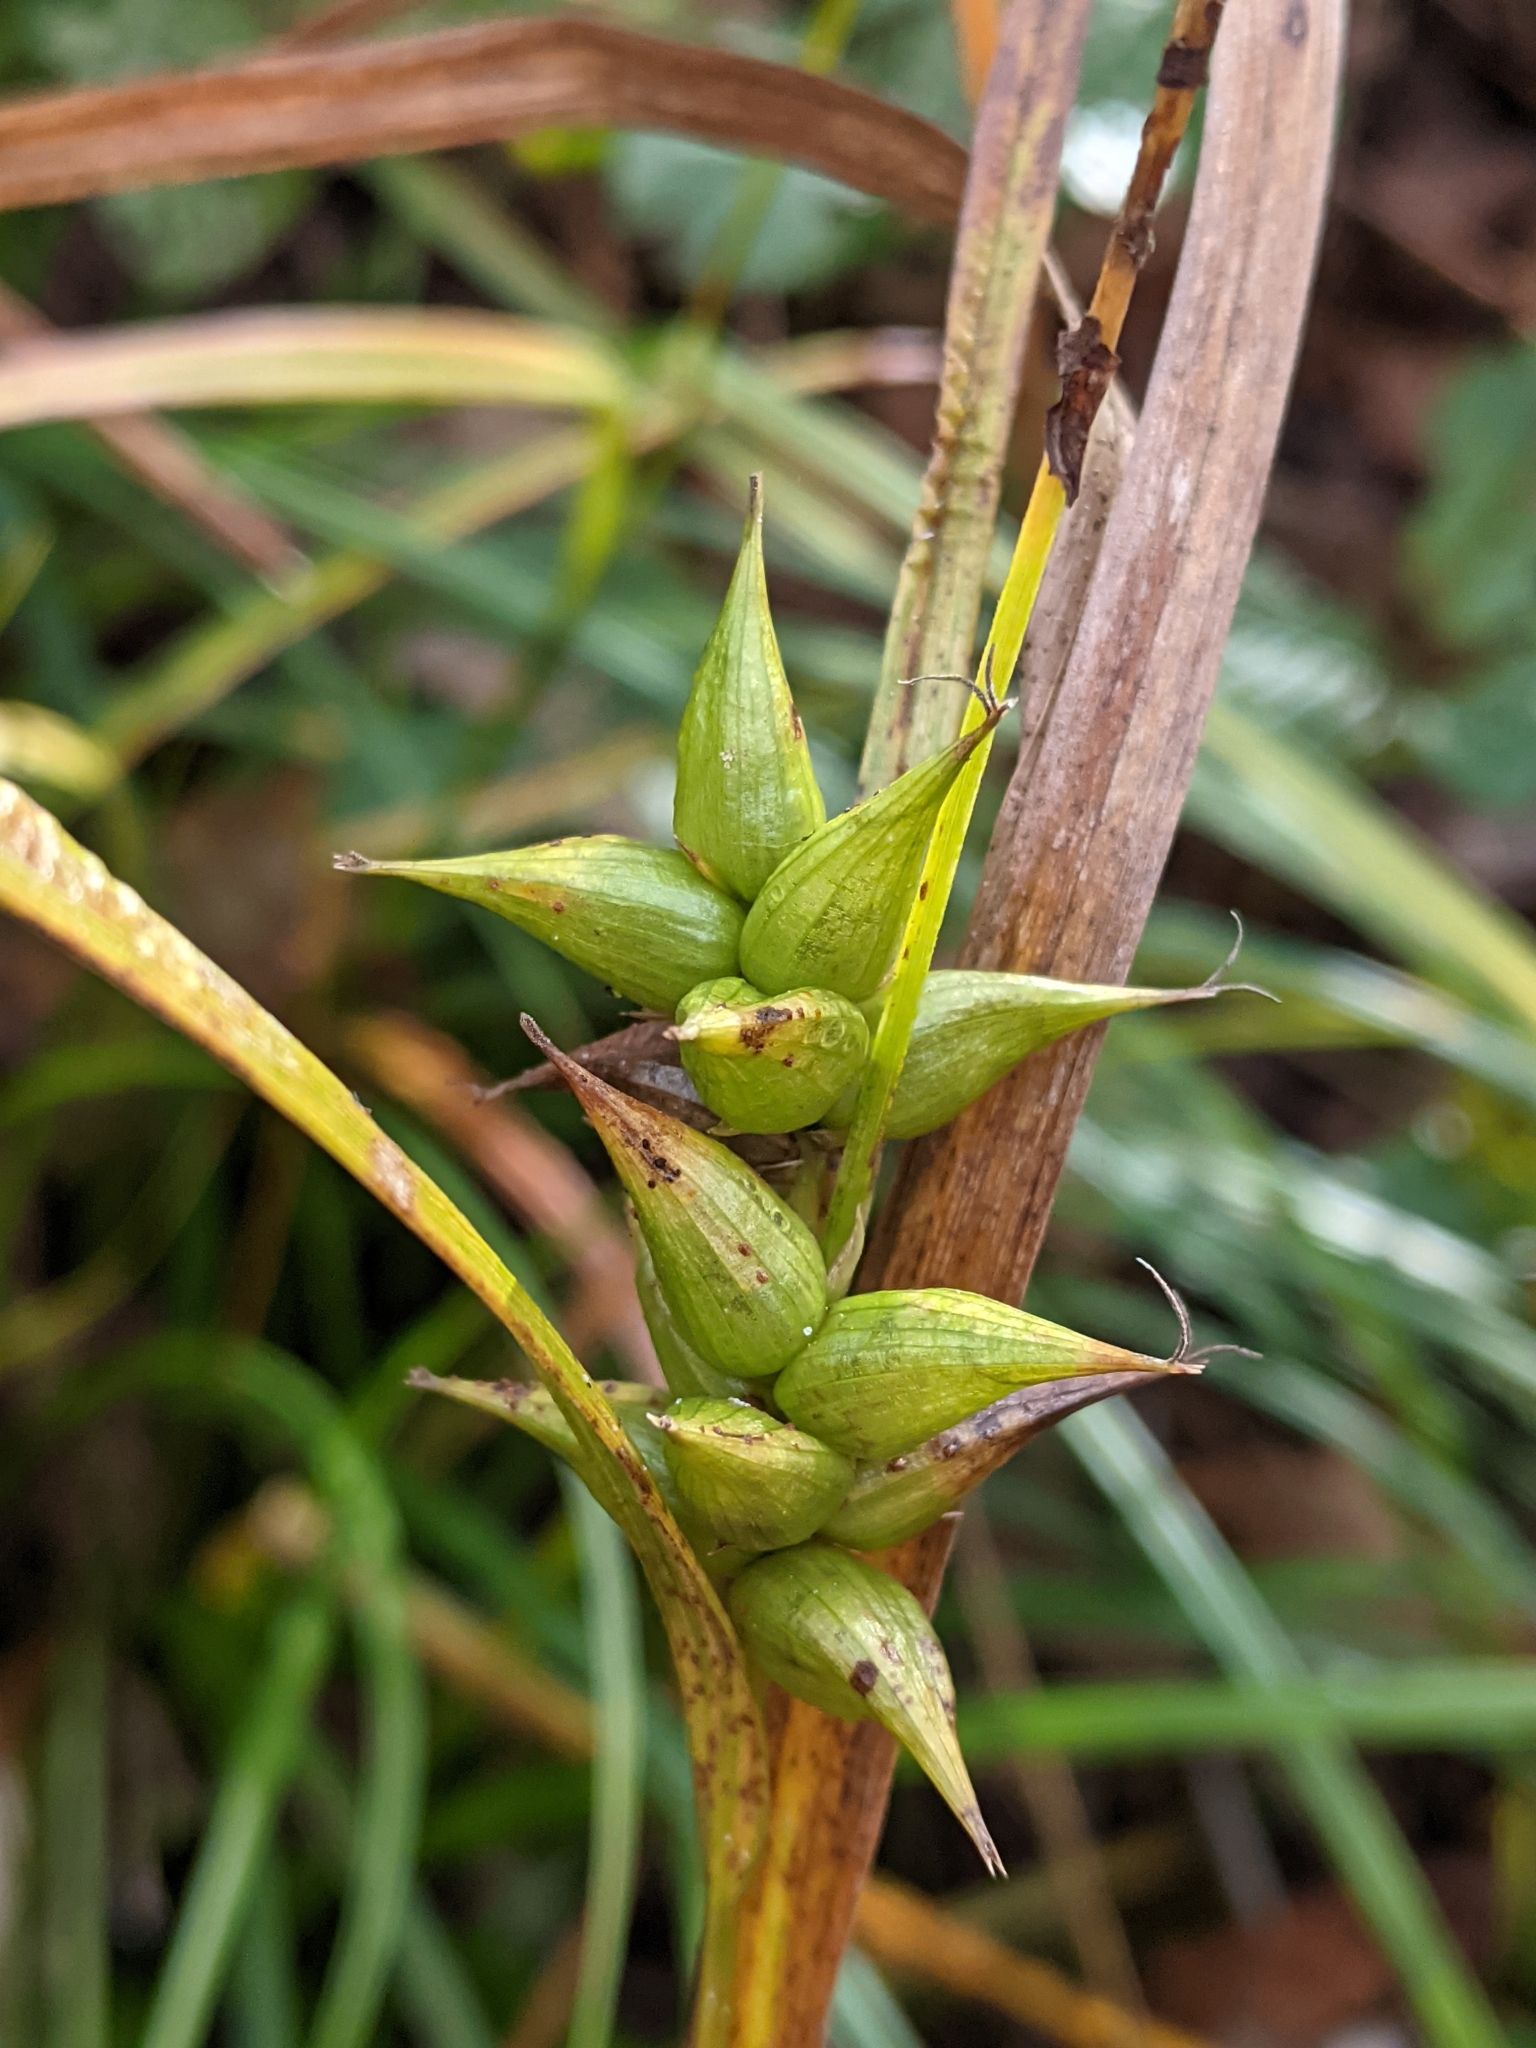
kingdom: Plantae
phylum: Tracheophyta
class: Liliopsida
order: Poales
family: Cyperaceae
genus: Carex
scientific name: Carex intumescens
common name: Greater bladder sedge
